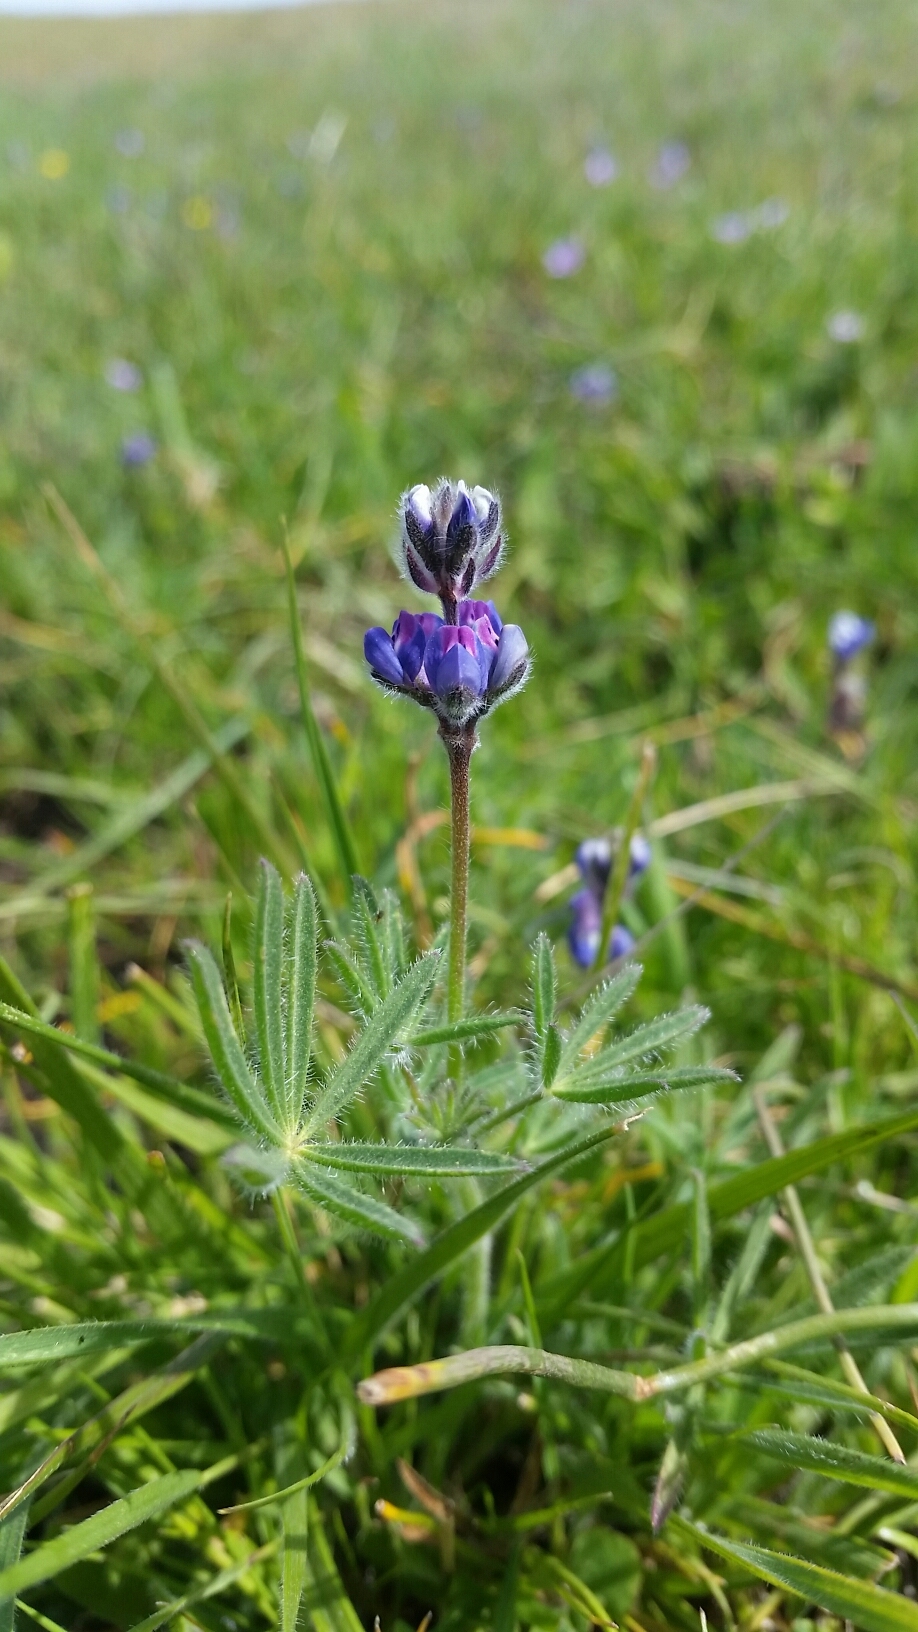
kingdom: Plantae
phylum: Tracheophyta
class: Magnoliopsida
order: Fabales
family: Fabaceae
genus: Lupinus
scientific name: Lupinus bicolor
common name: Miniature lupine
